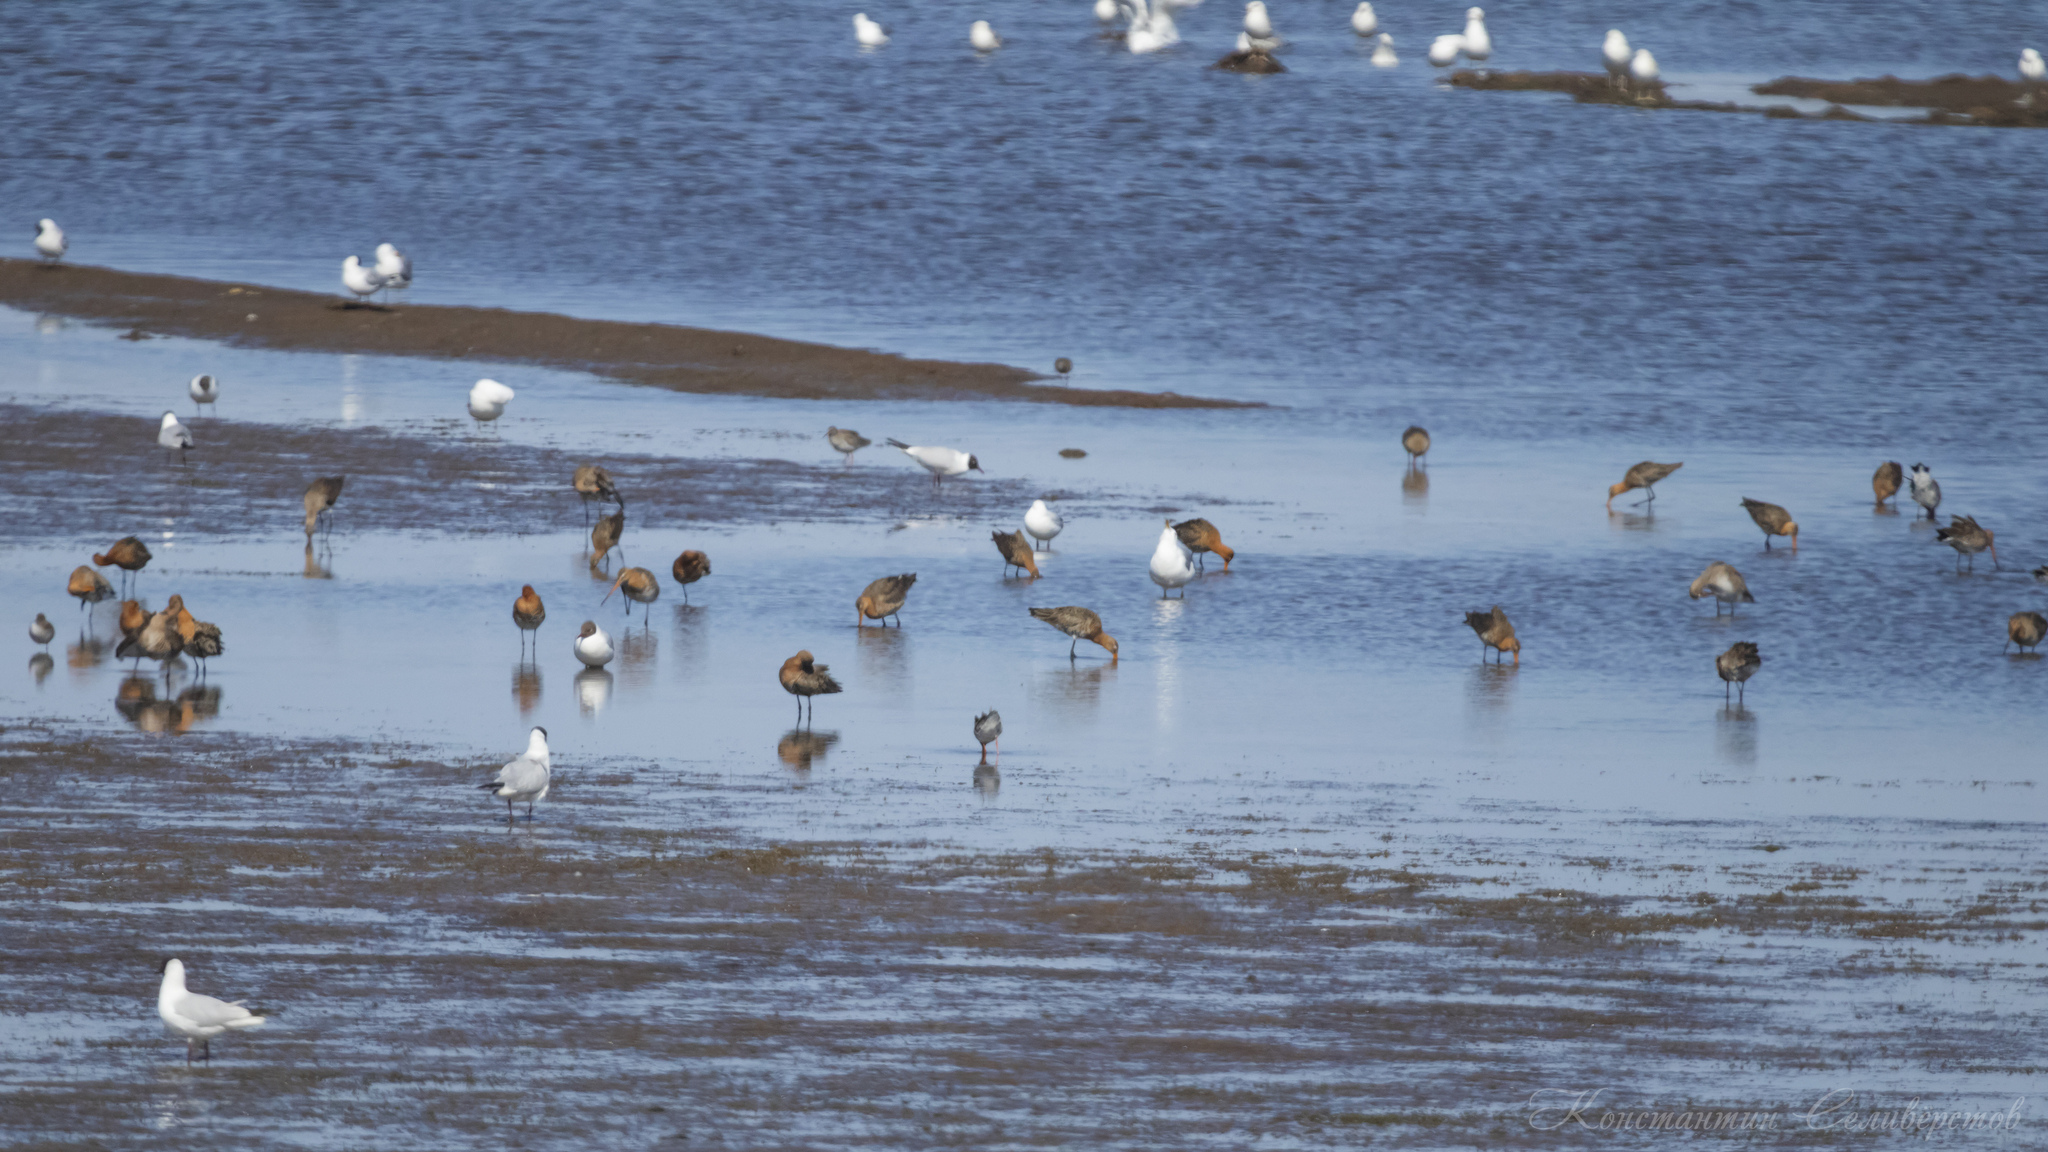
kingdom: Animalia
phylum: Chordata
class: Aves
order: Charadriiformes
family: Scolopacidae
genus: Limosa
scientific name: Limosa limosa
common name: Black-tailed godwit
